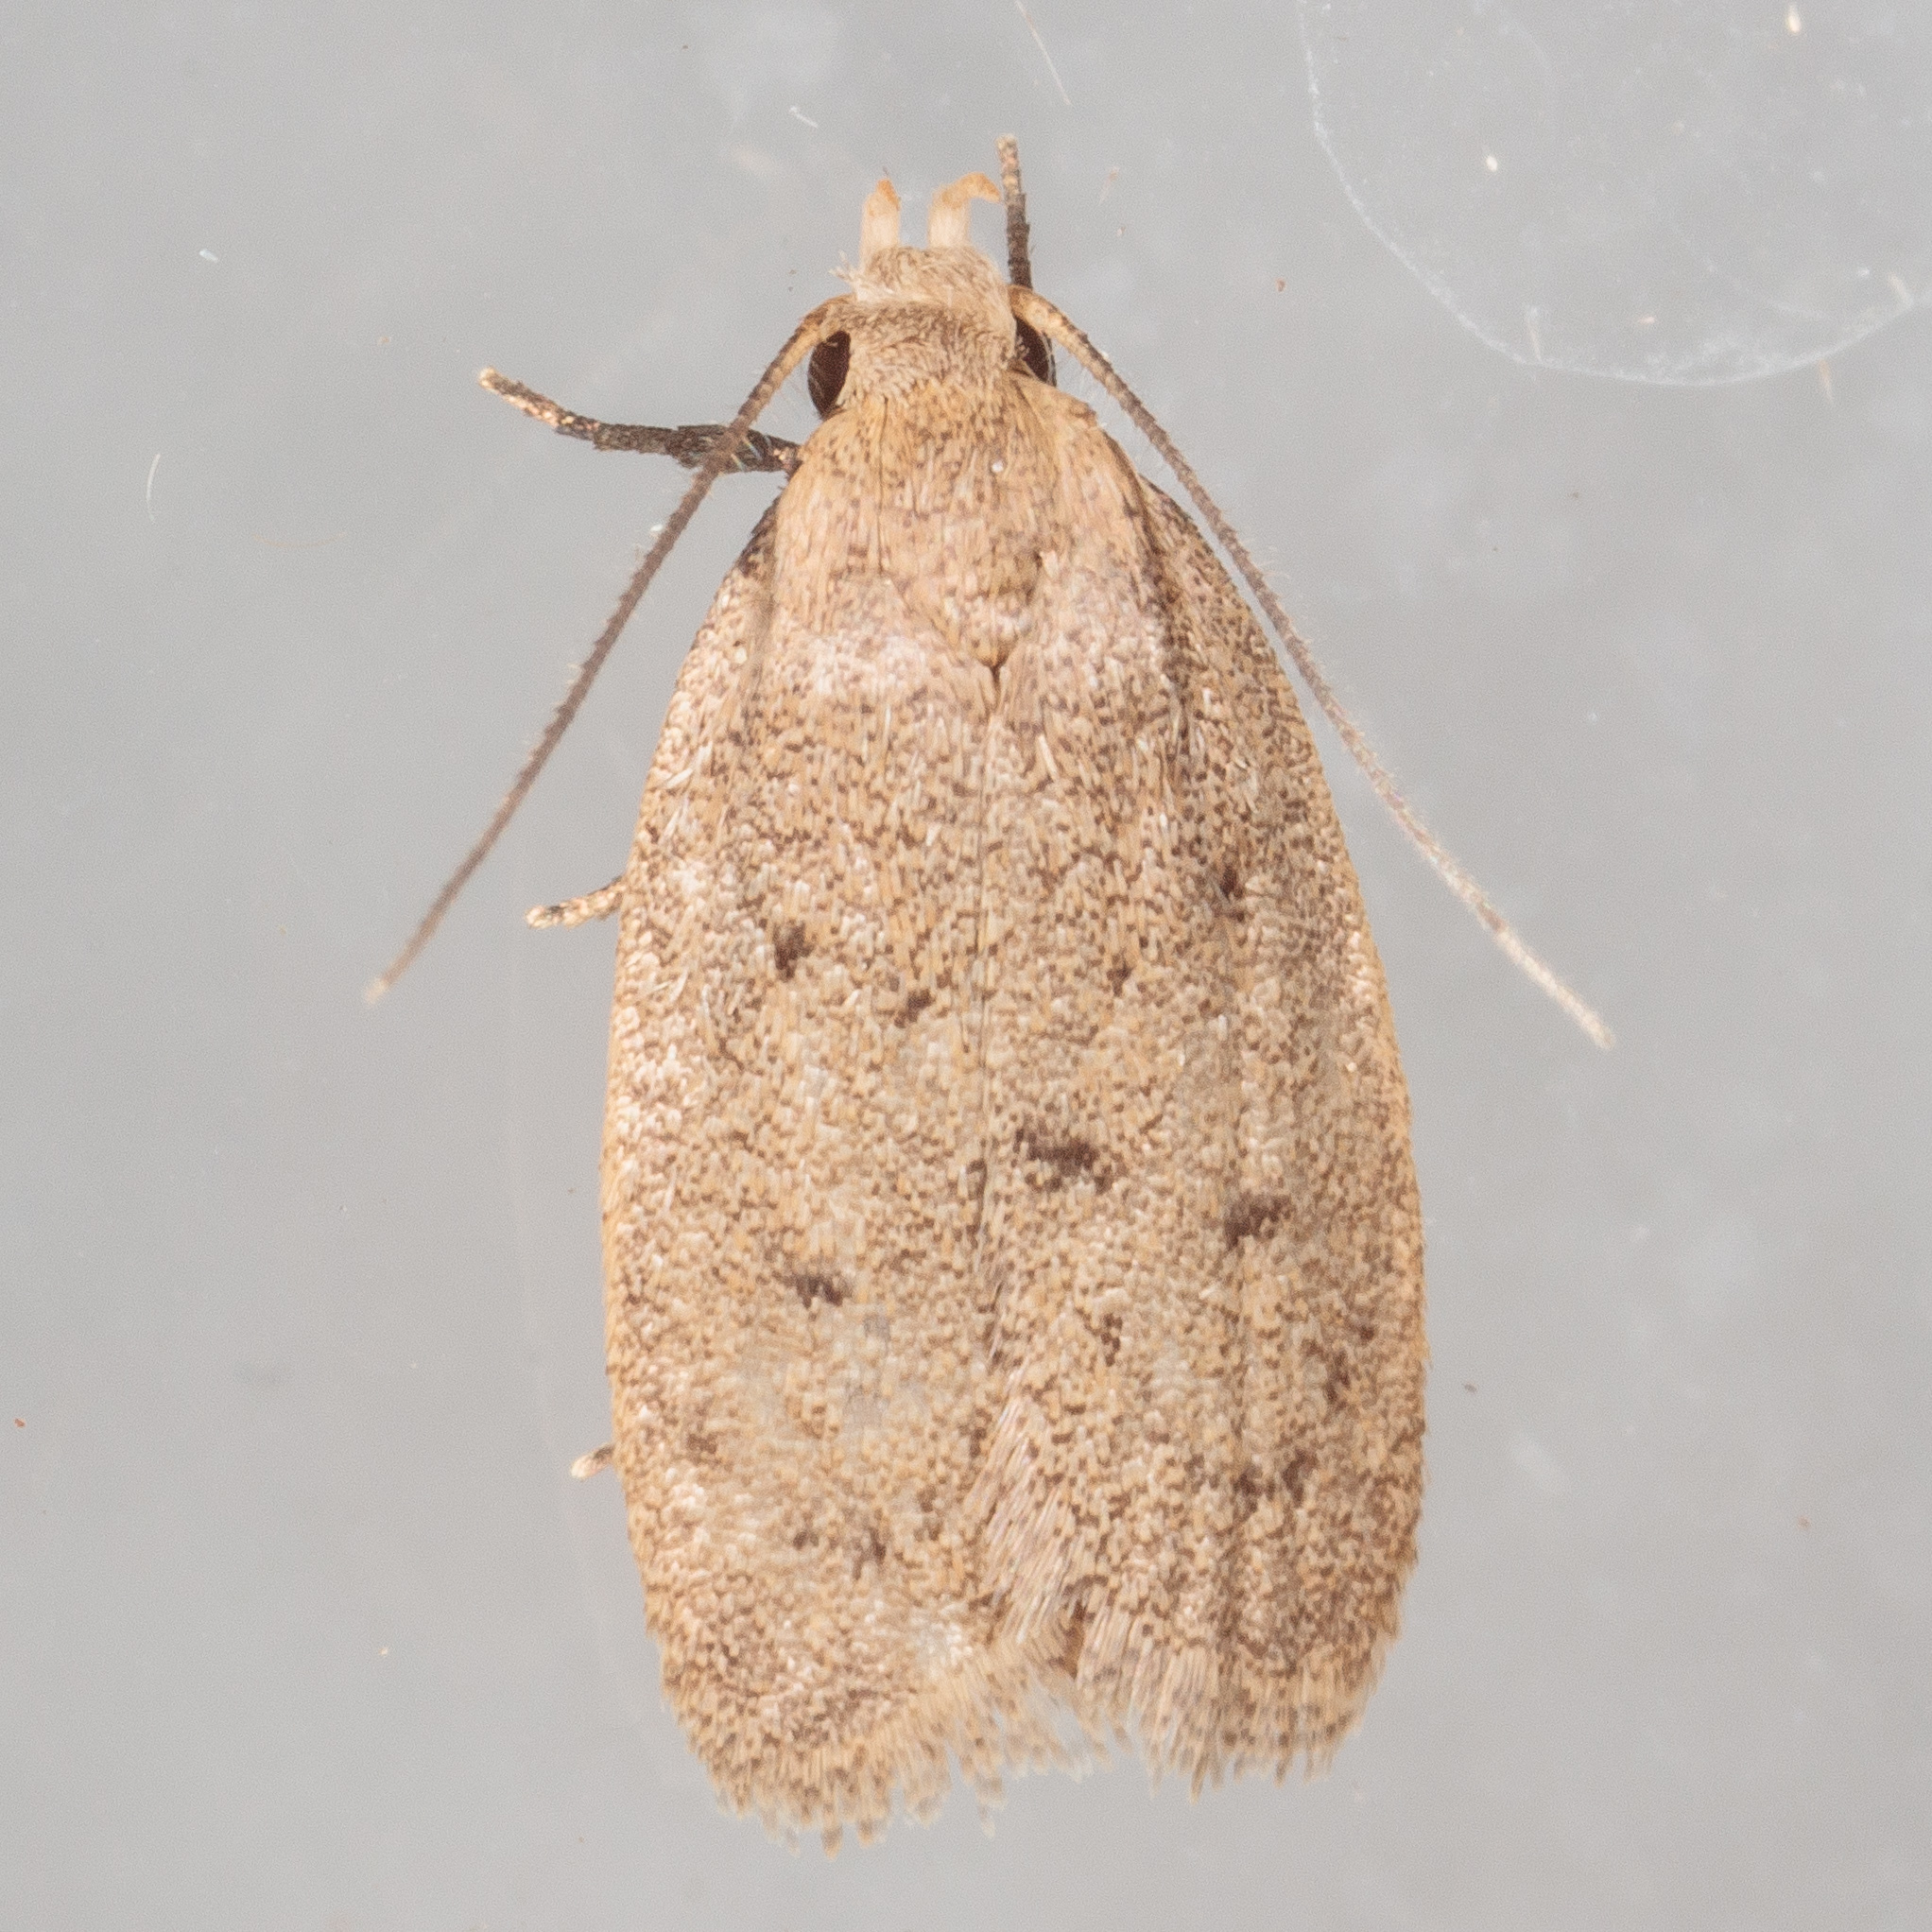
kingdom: Animalia
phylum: Arthropoda
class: Insecta
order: Lepidoptera
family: Oecophoridae
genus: Inga
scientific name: Inga obscuromaculella
